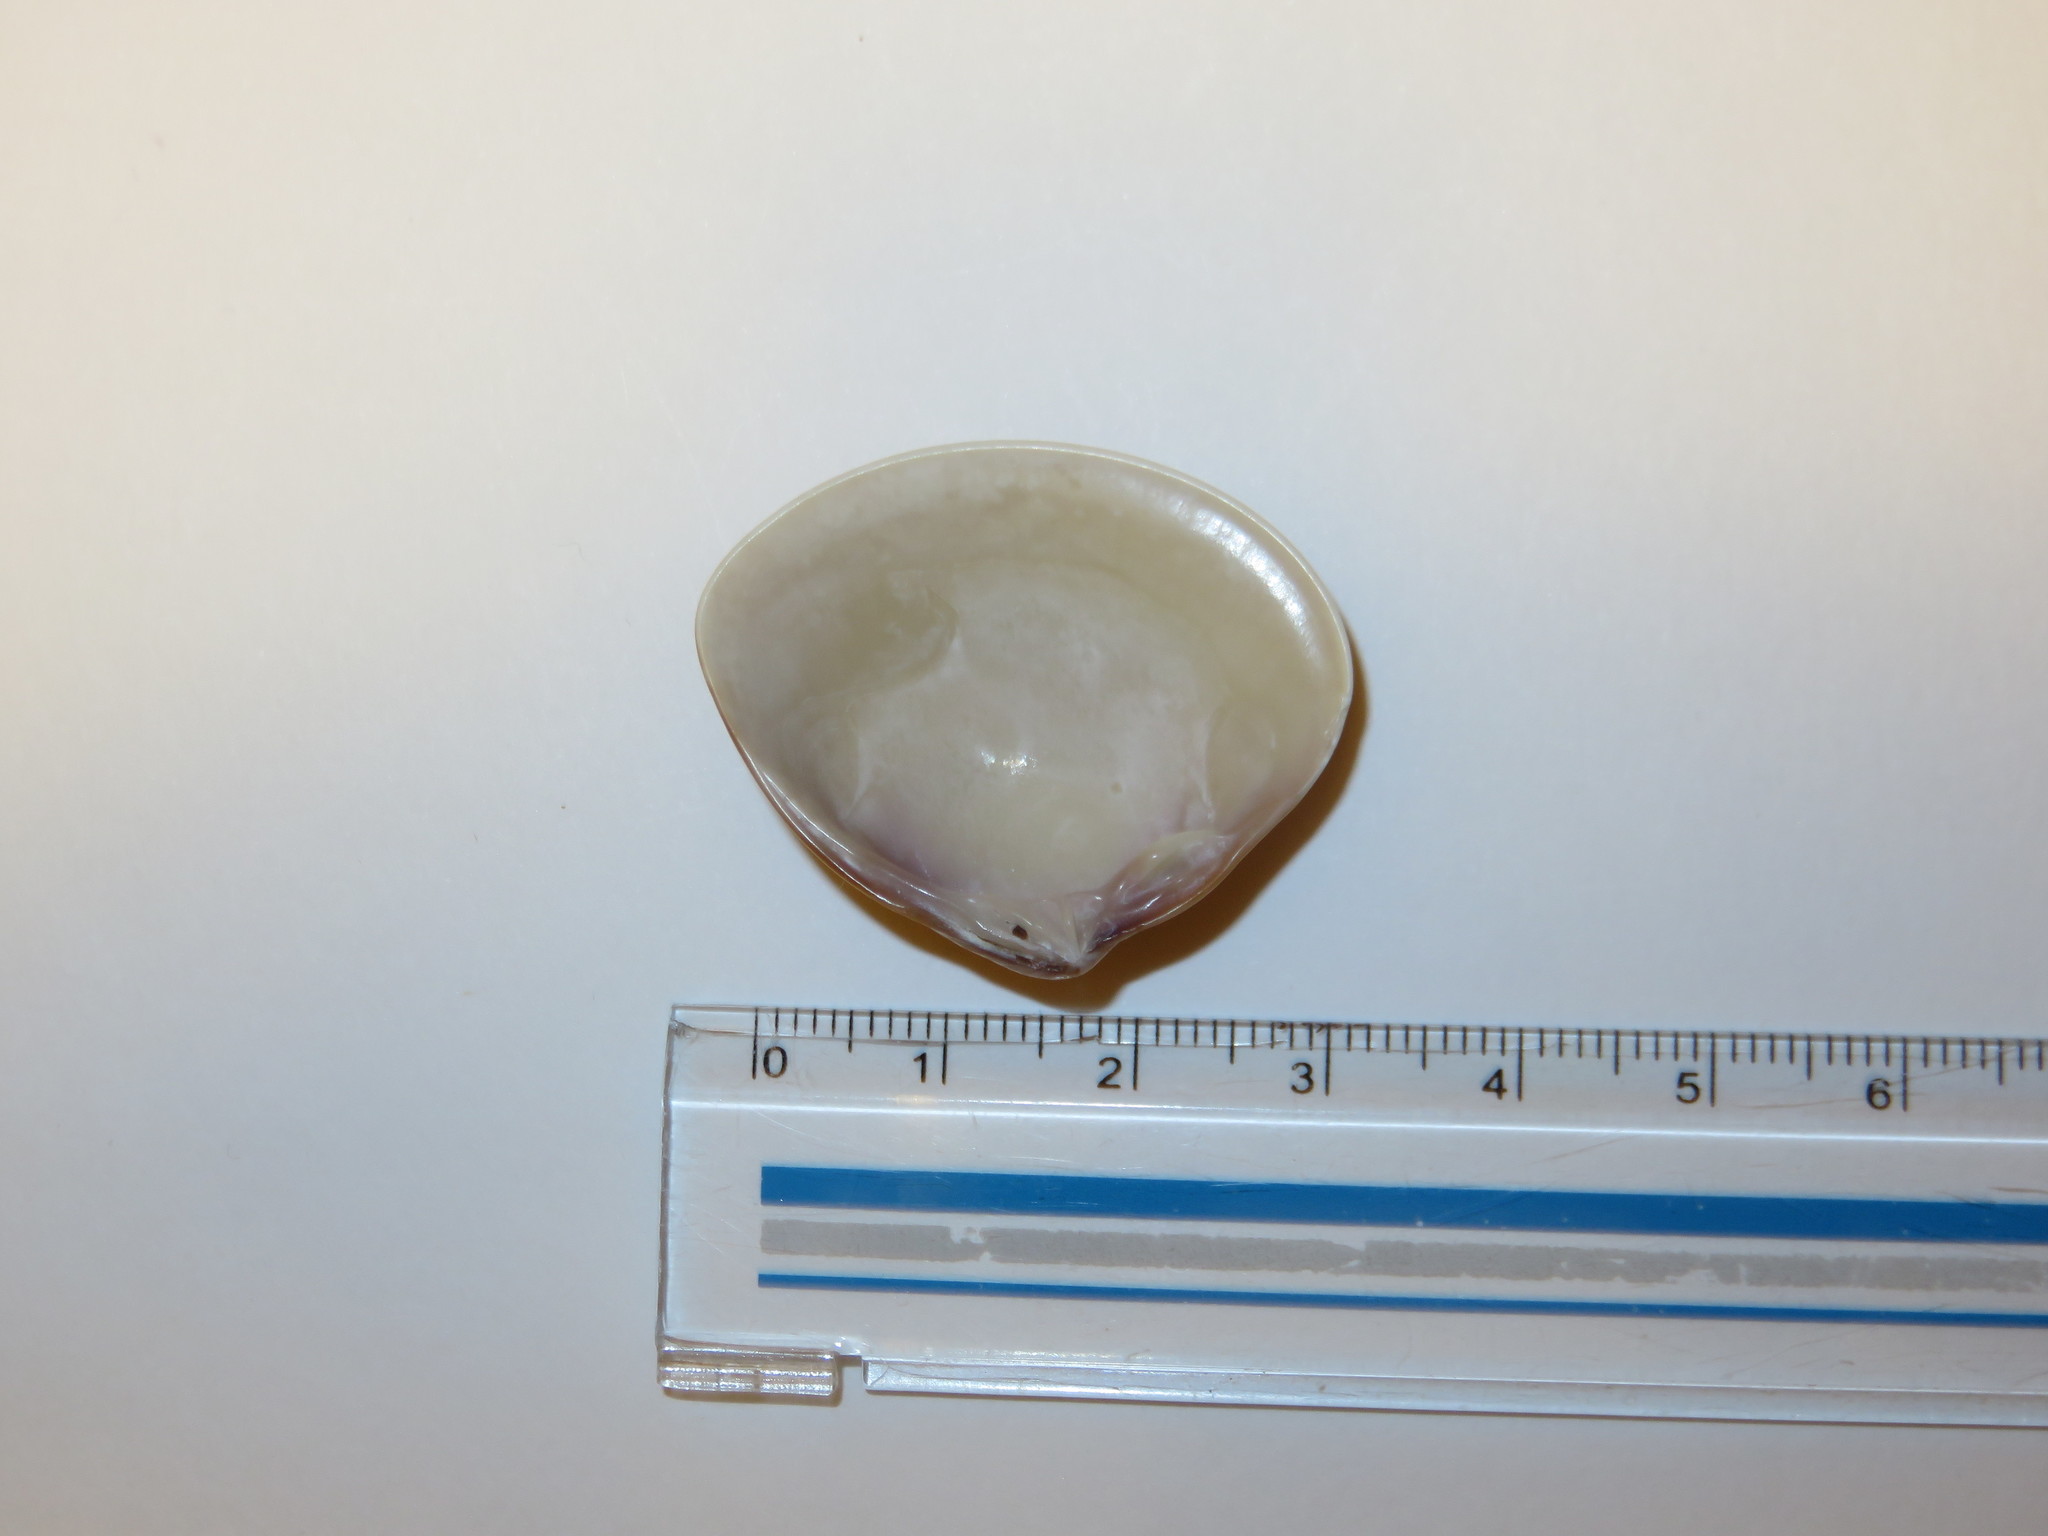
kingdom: Animalia
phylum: Mollusca
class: Bivalvia
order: Venerida
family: Veneridae
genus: Meretrix
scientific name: Meretrix lamarckii
